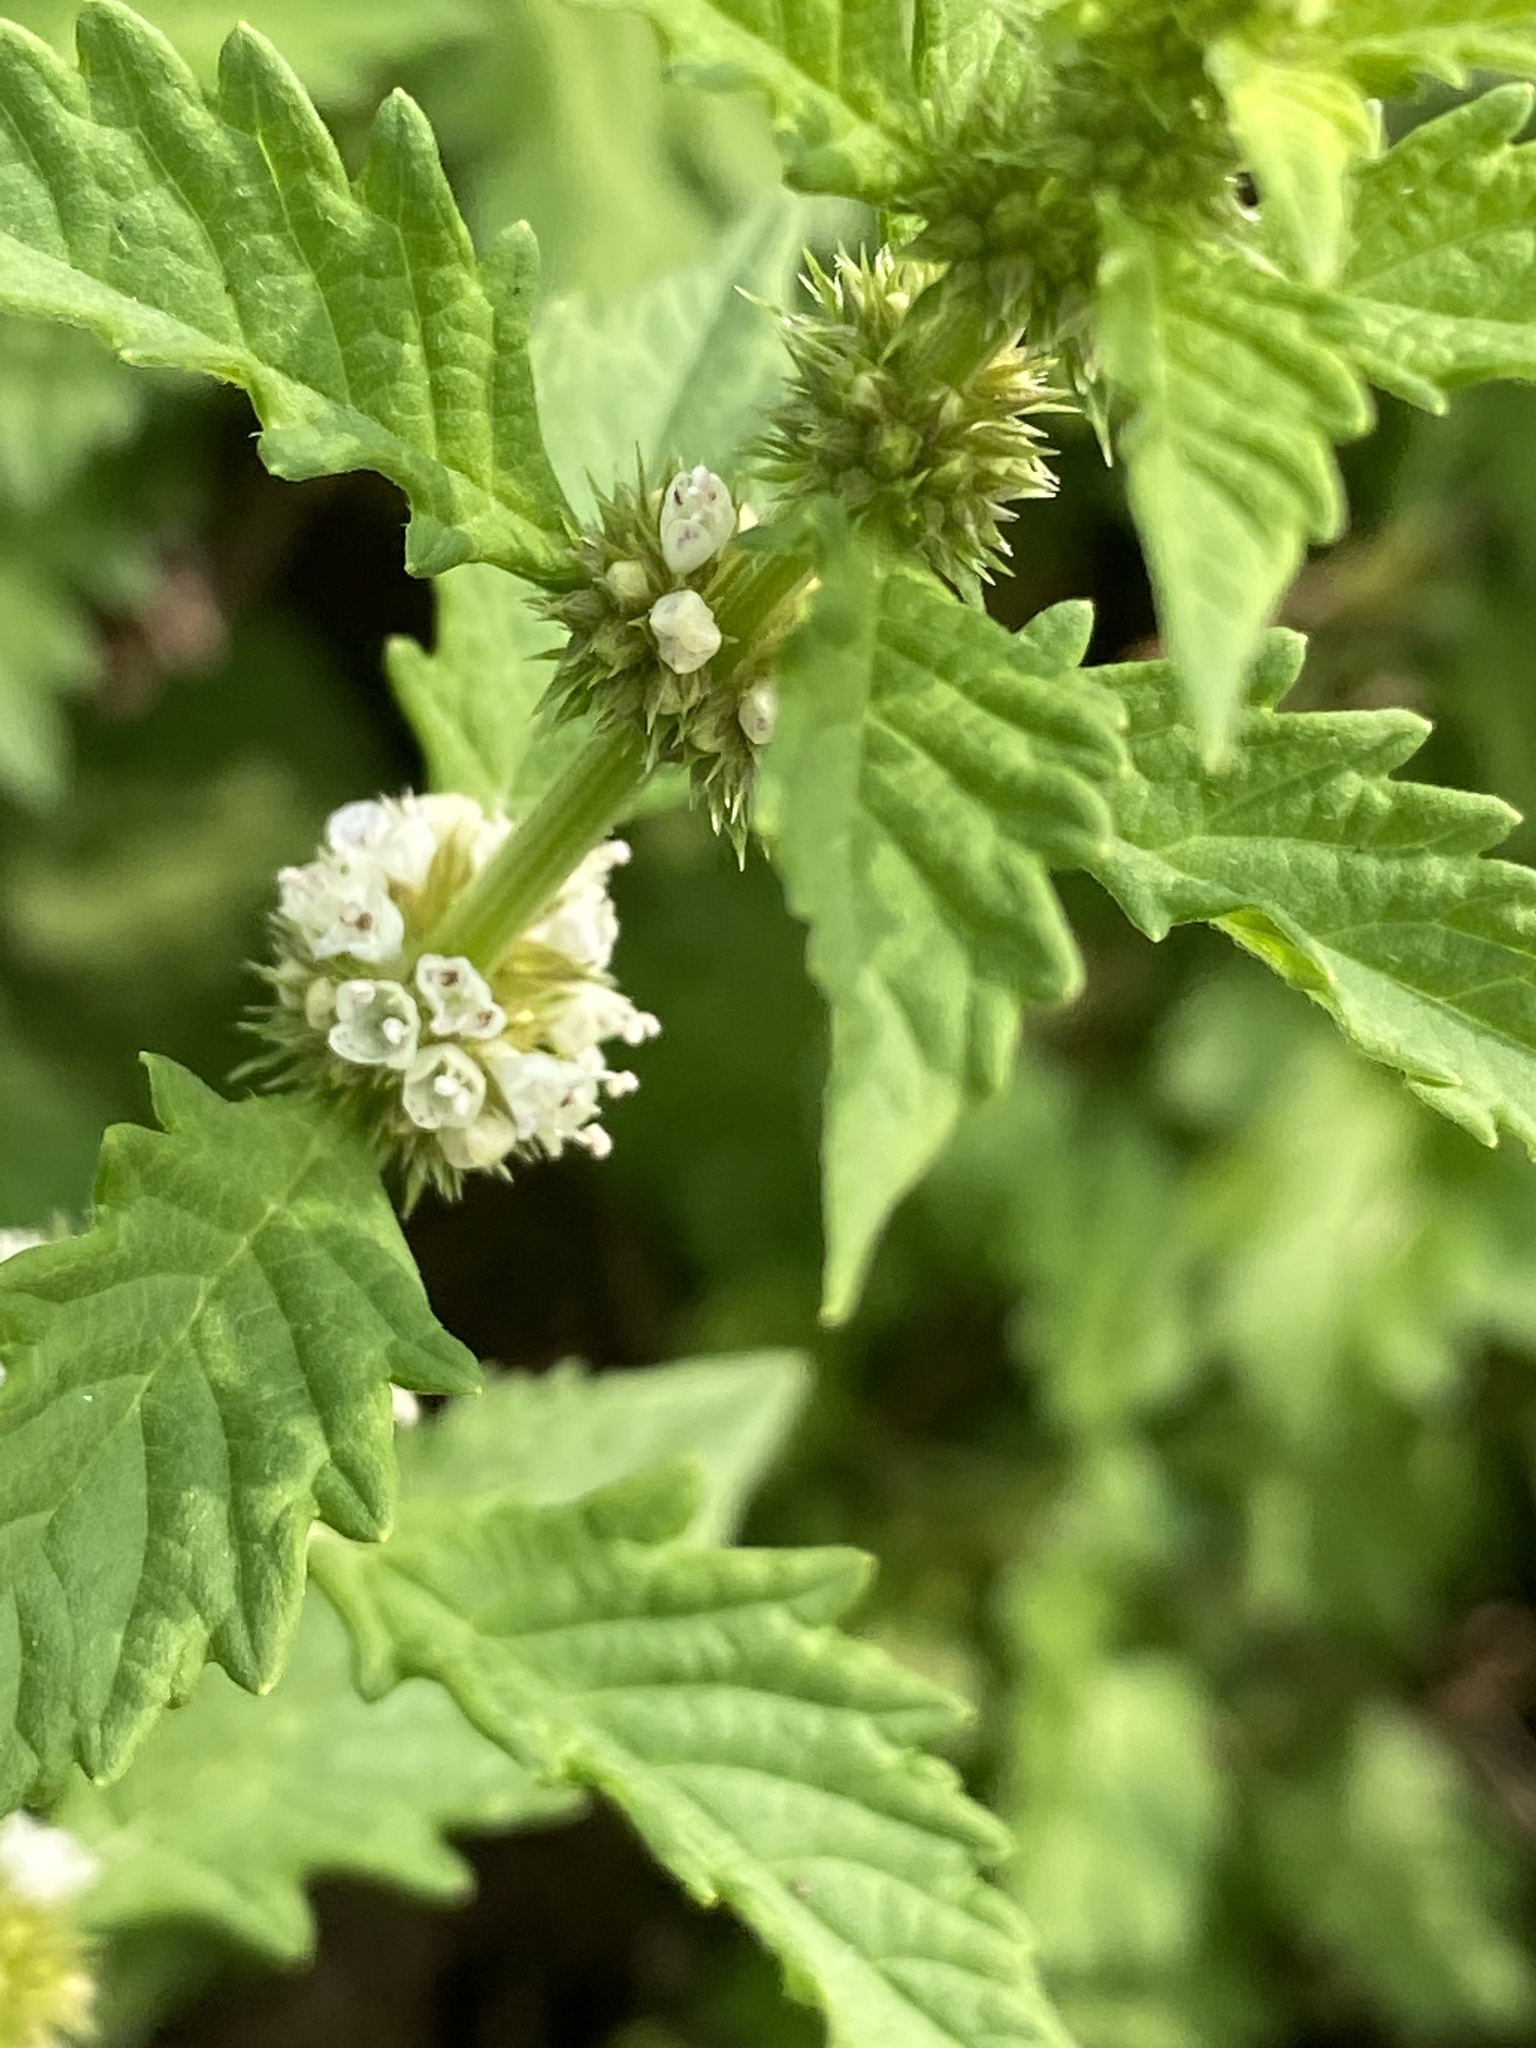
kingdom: Plantae
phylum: Tracheophyta
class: Magnoliopsida
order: Lamiales
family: Lamiaceae
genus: Lycopus
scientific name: Lycopus europaeus
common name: European bugleweed
